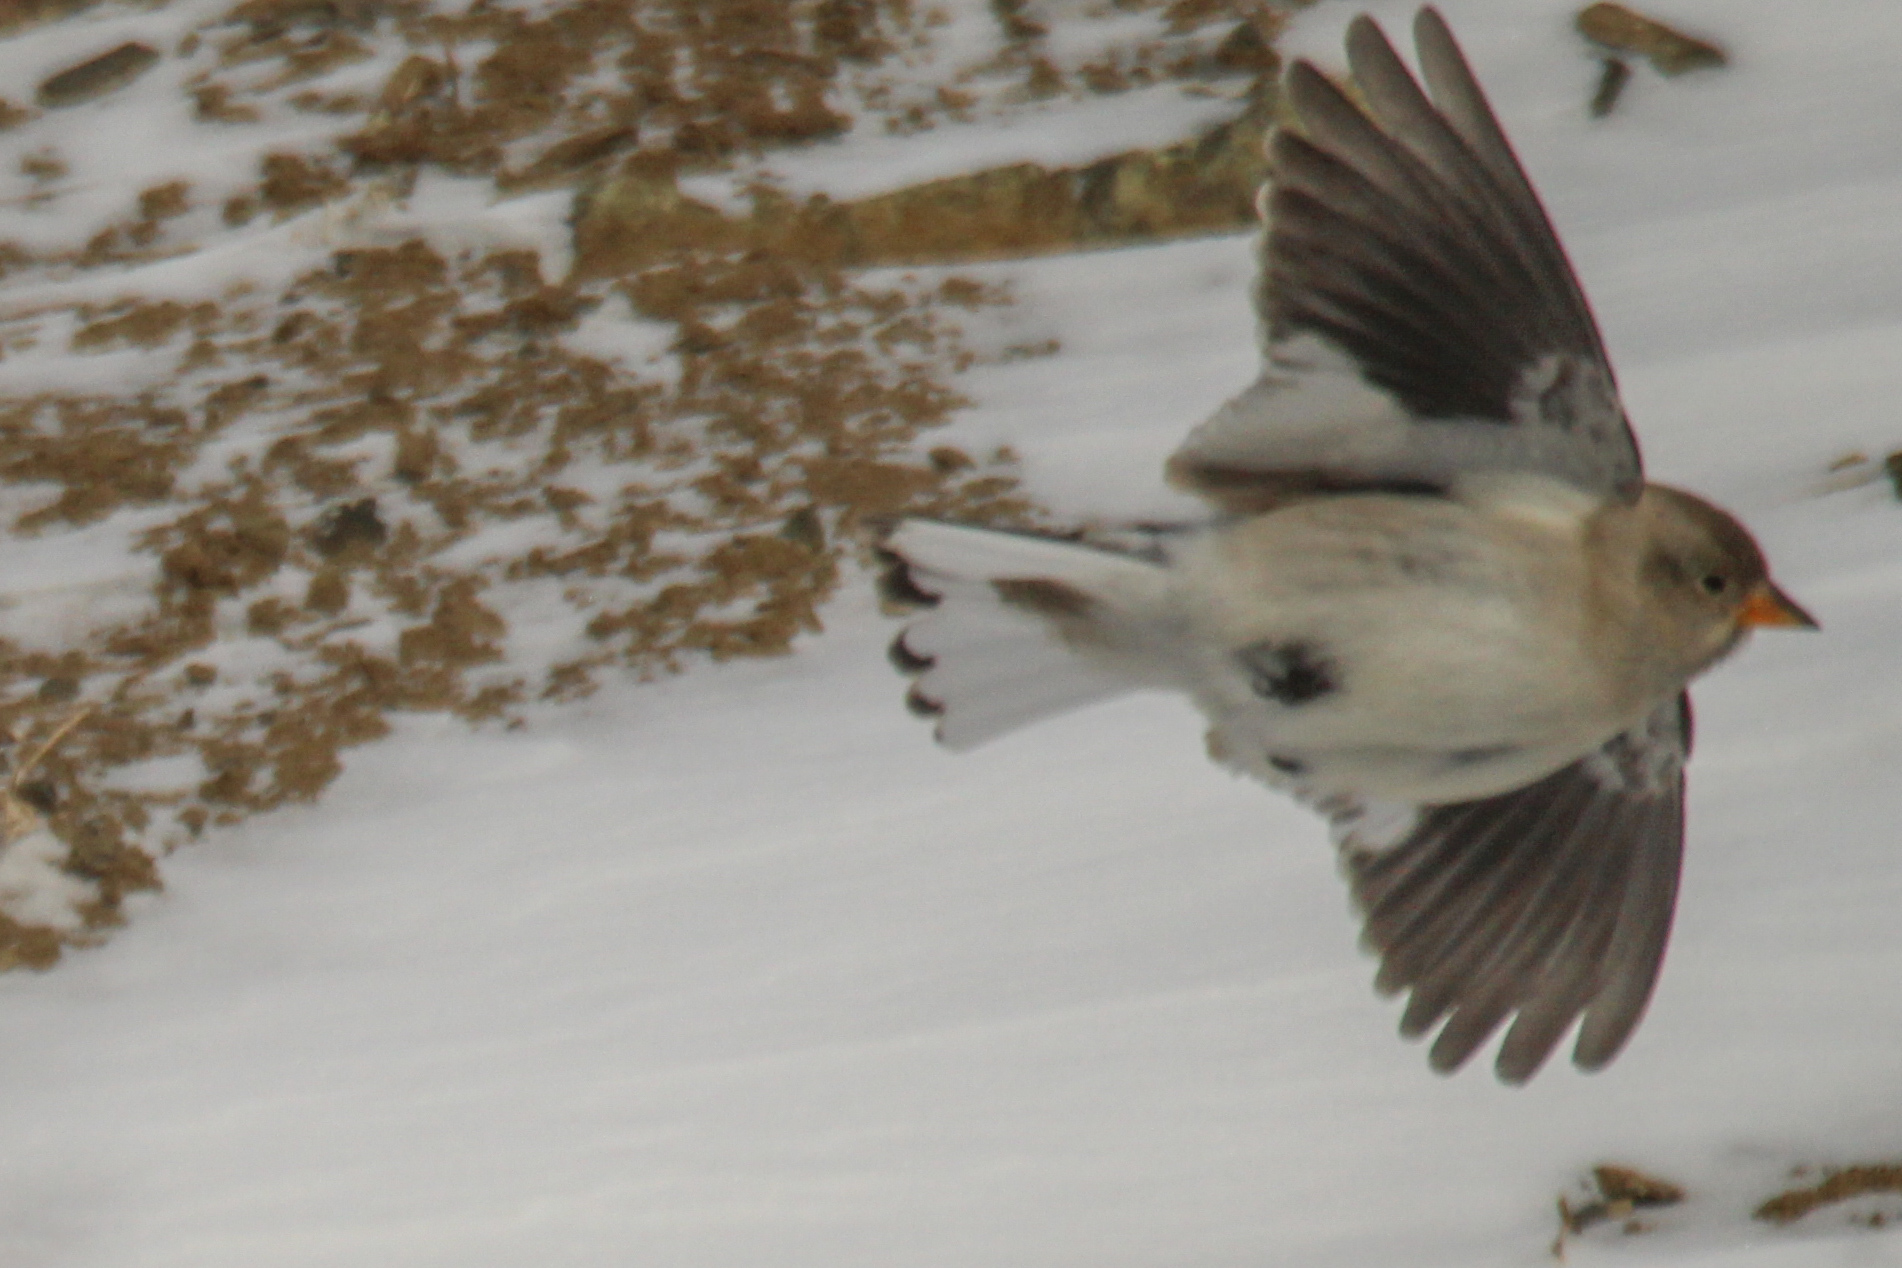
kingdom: Animalia
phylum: Chordata
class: Aves
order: Passeriformes
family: Passeridae
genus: Montifringilla
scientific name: Montifringilla nivalis
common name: White-winged snowfinch
